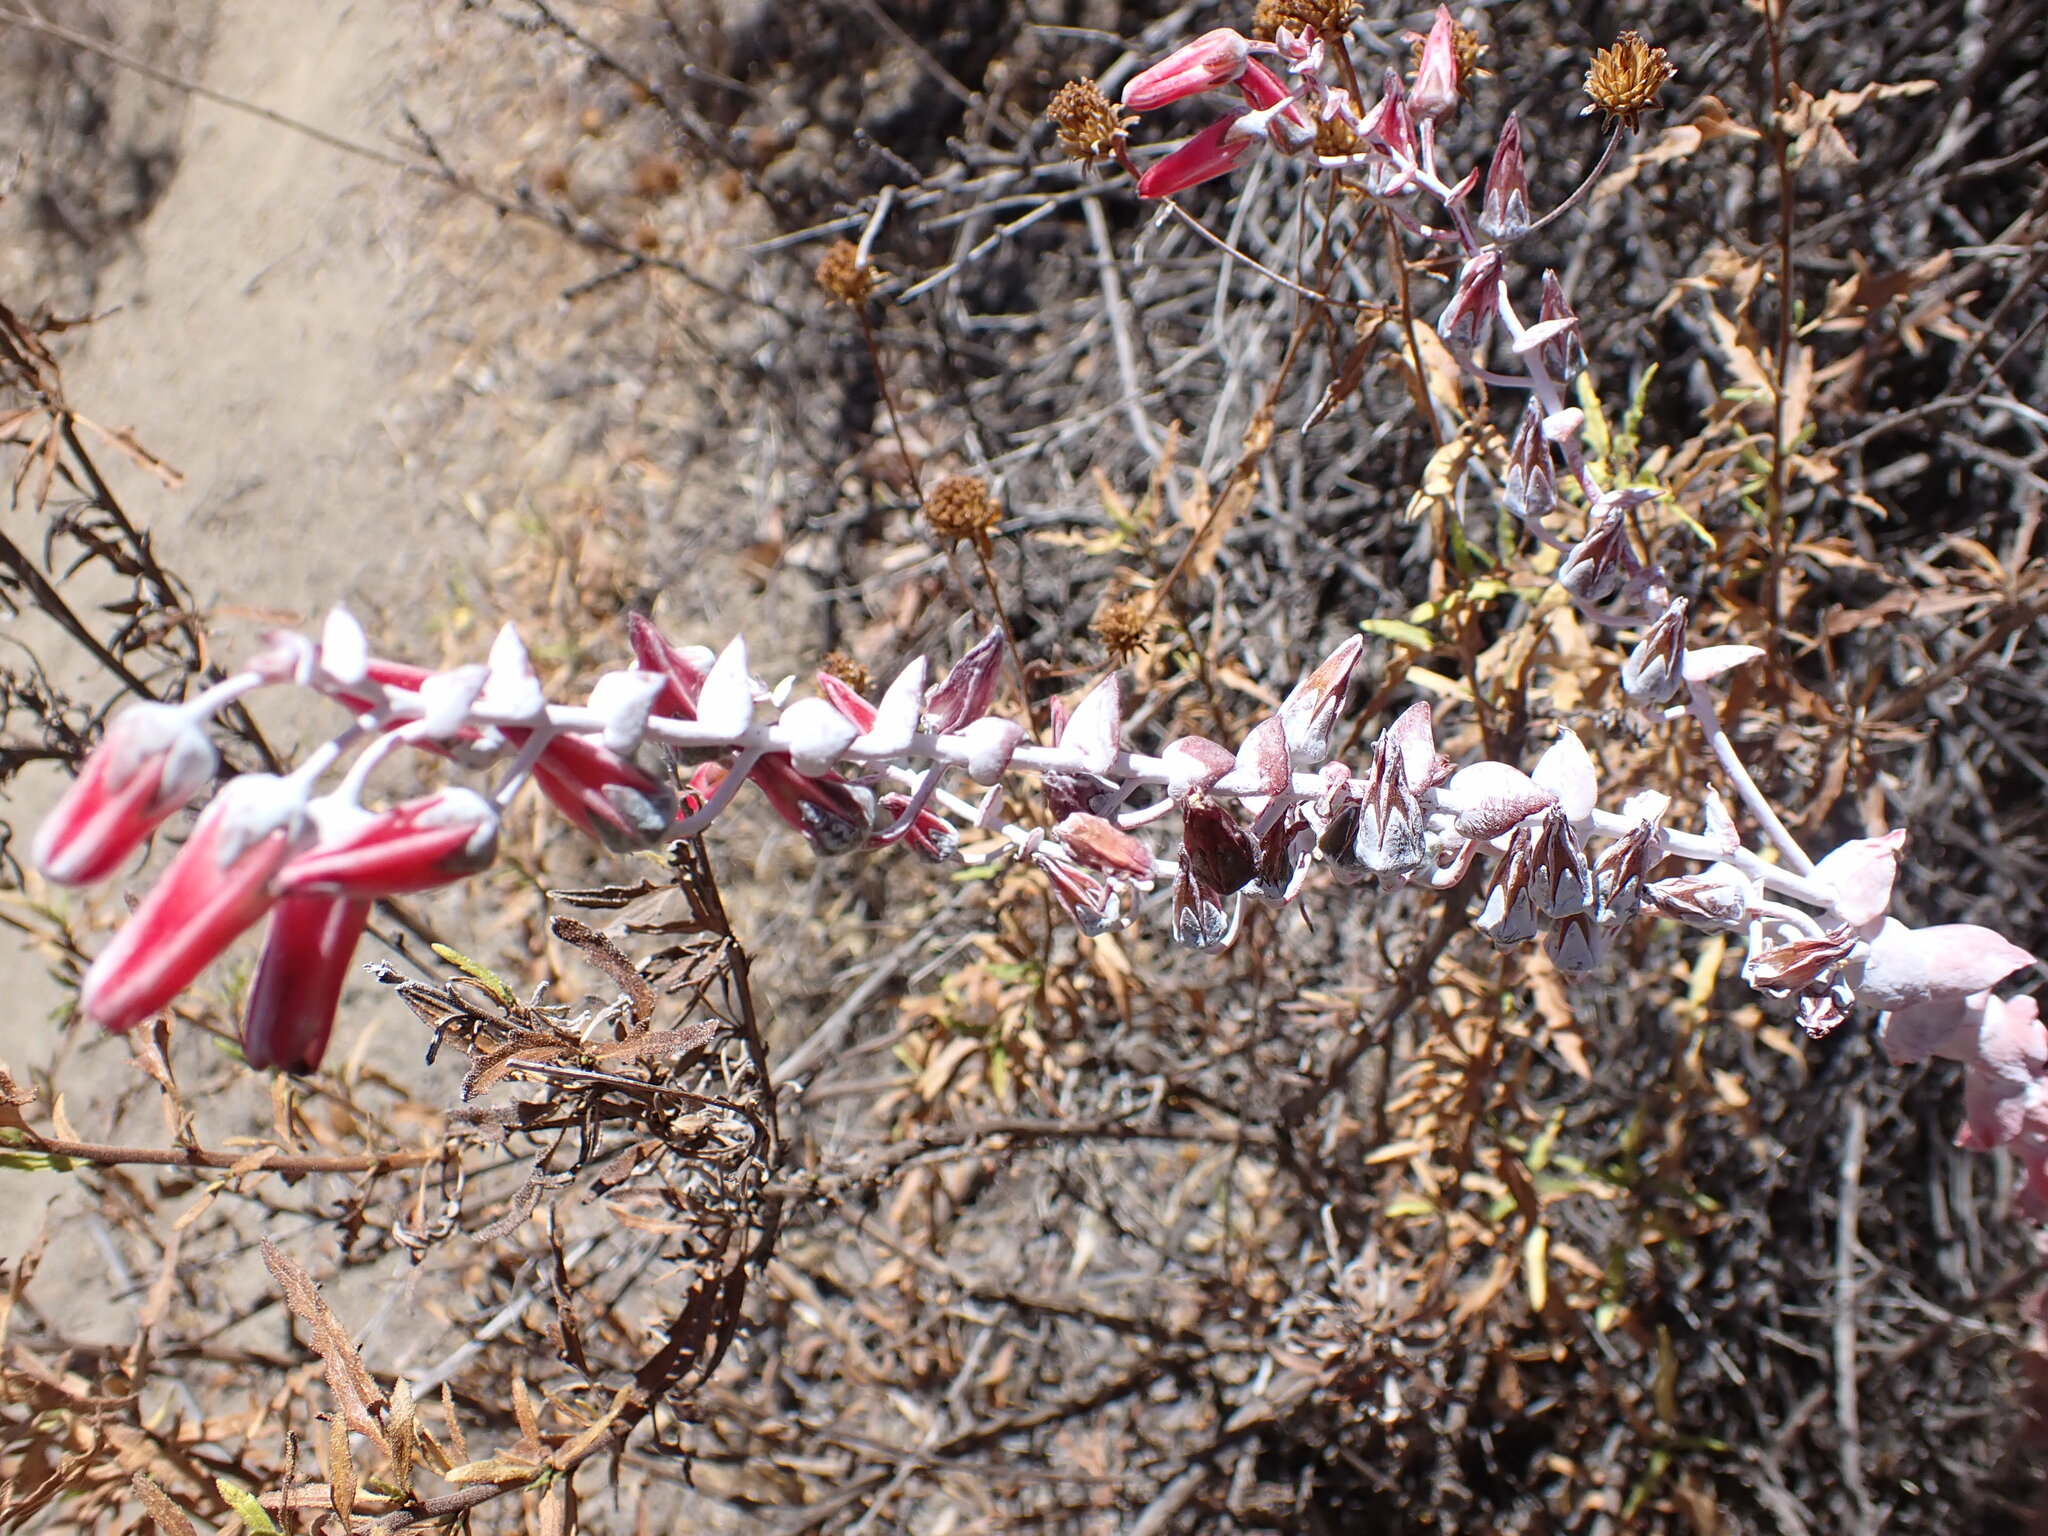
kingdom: Plantae
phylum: Tracheophyta
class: Magnoliopsida
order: Saxifragales
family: Crassulaceae
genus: Dudleya
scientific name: Dudleya pulverulenta
